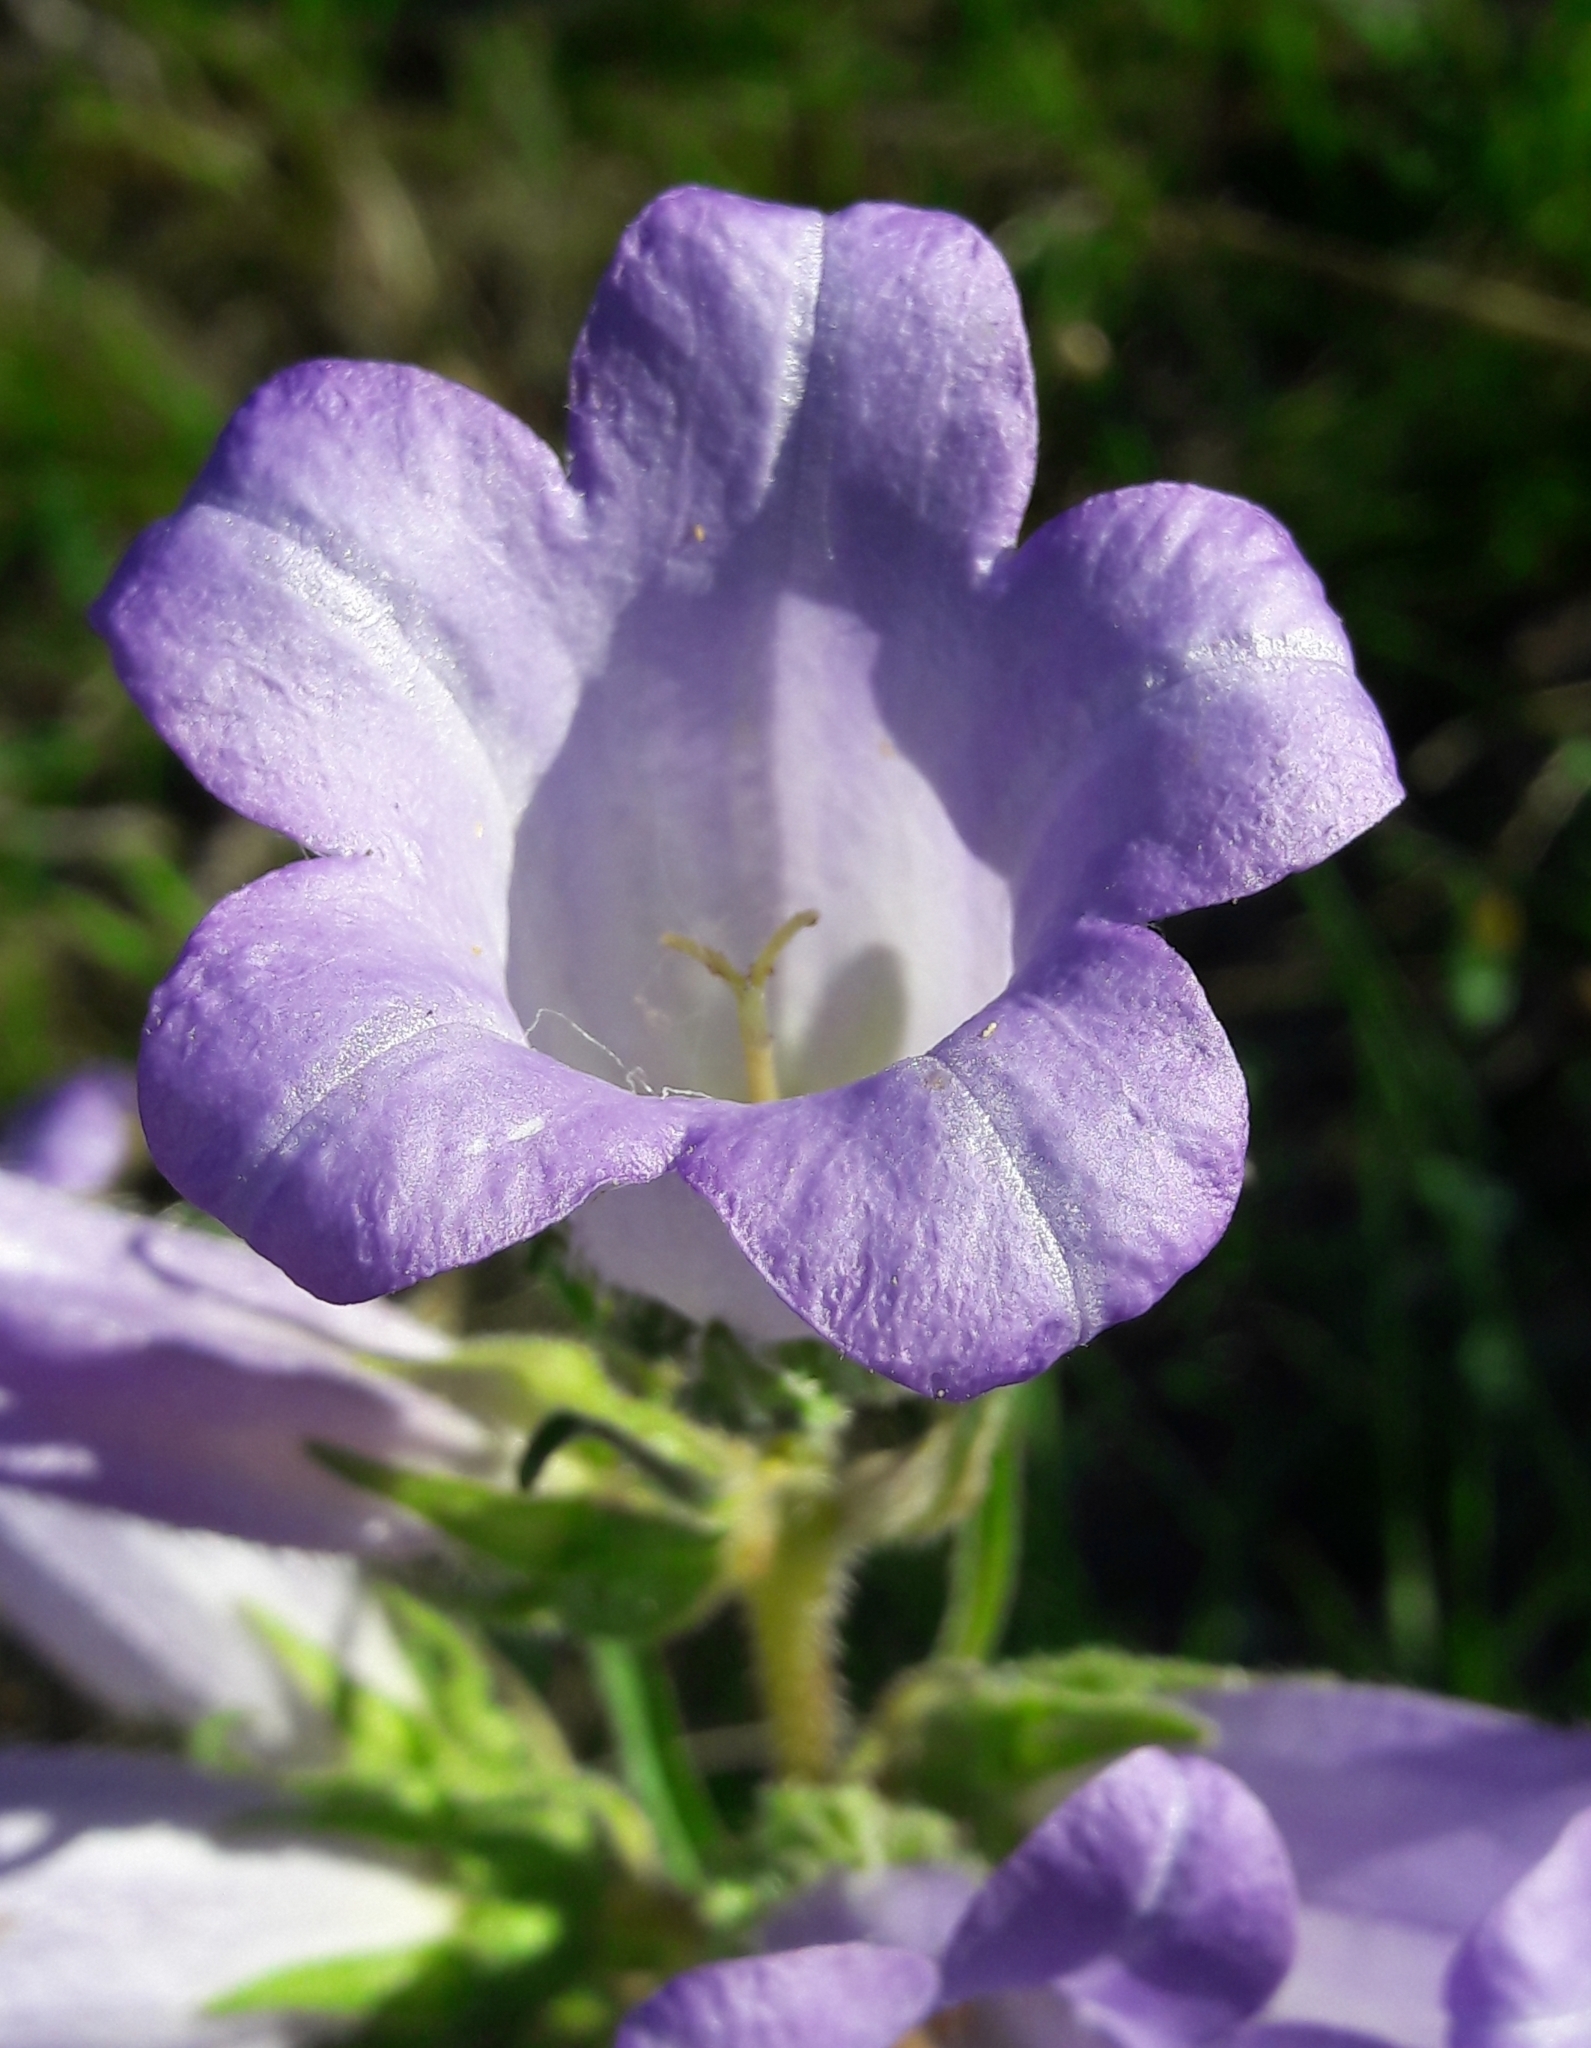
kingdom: Plantae
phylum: Tracheophyta
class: Magnoliopsida
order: Asterales
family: Campanulaceae
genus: Campanula
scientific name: Campanula speciosa
